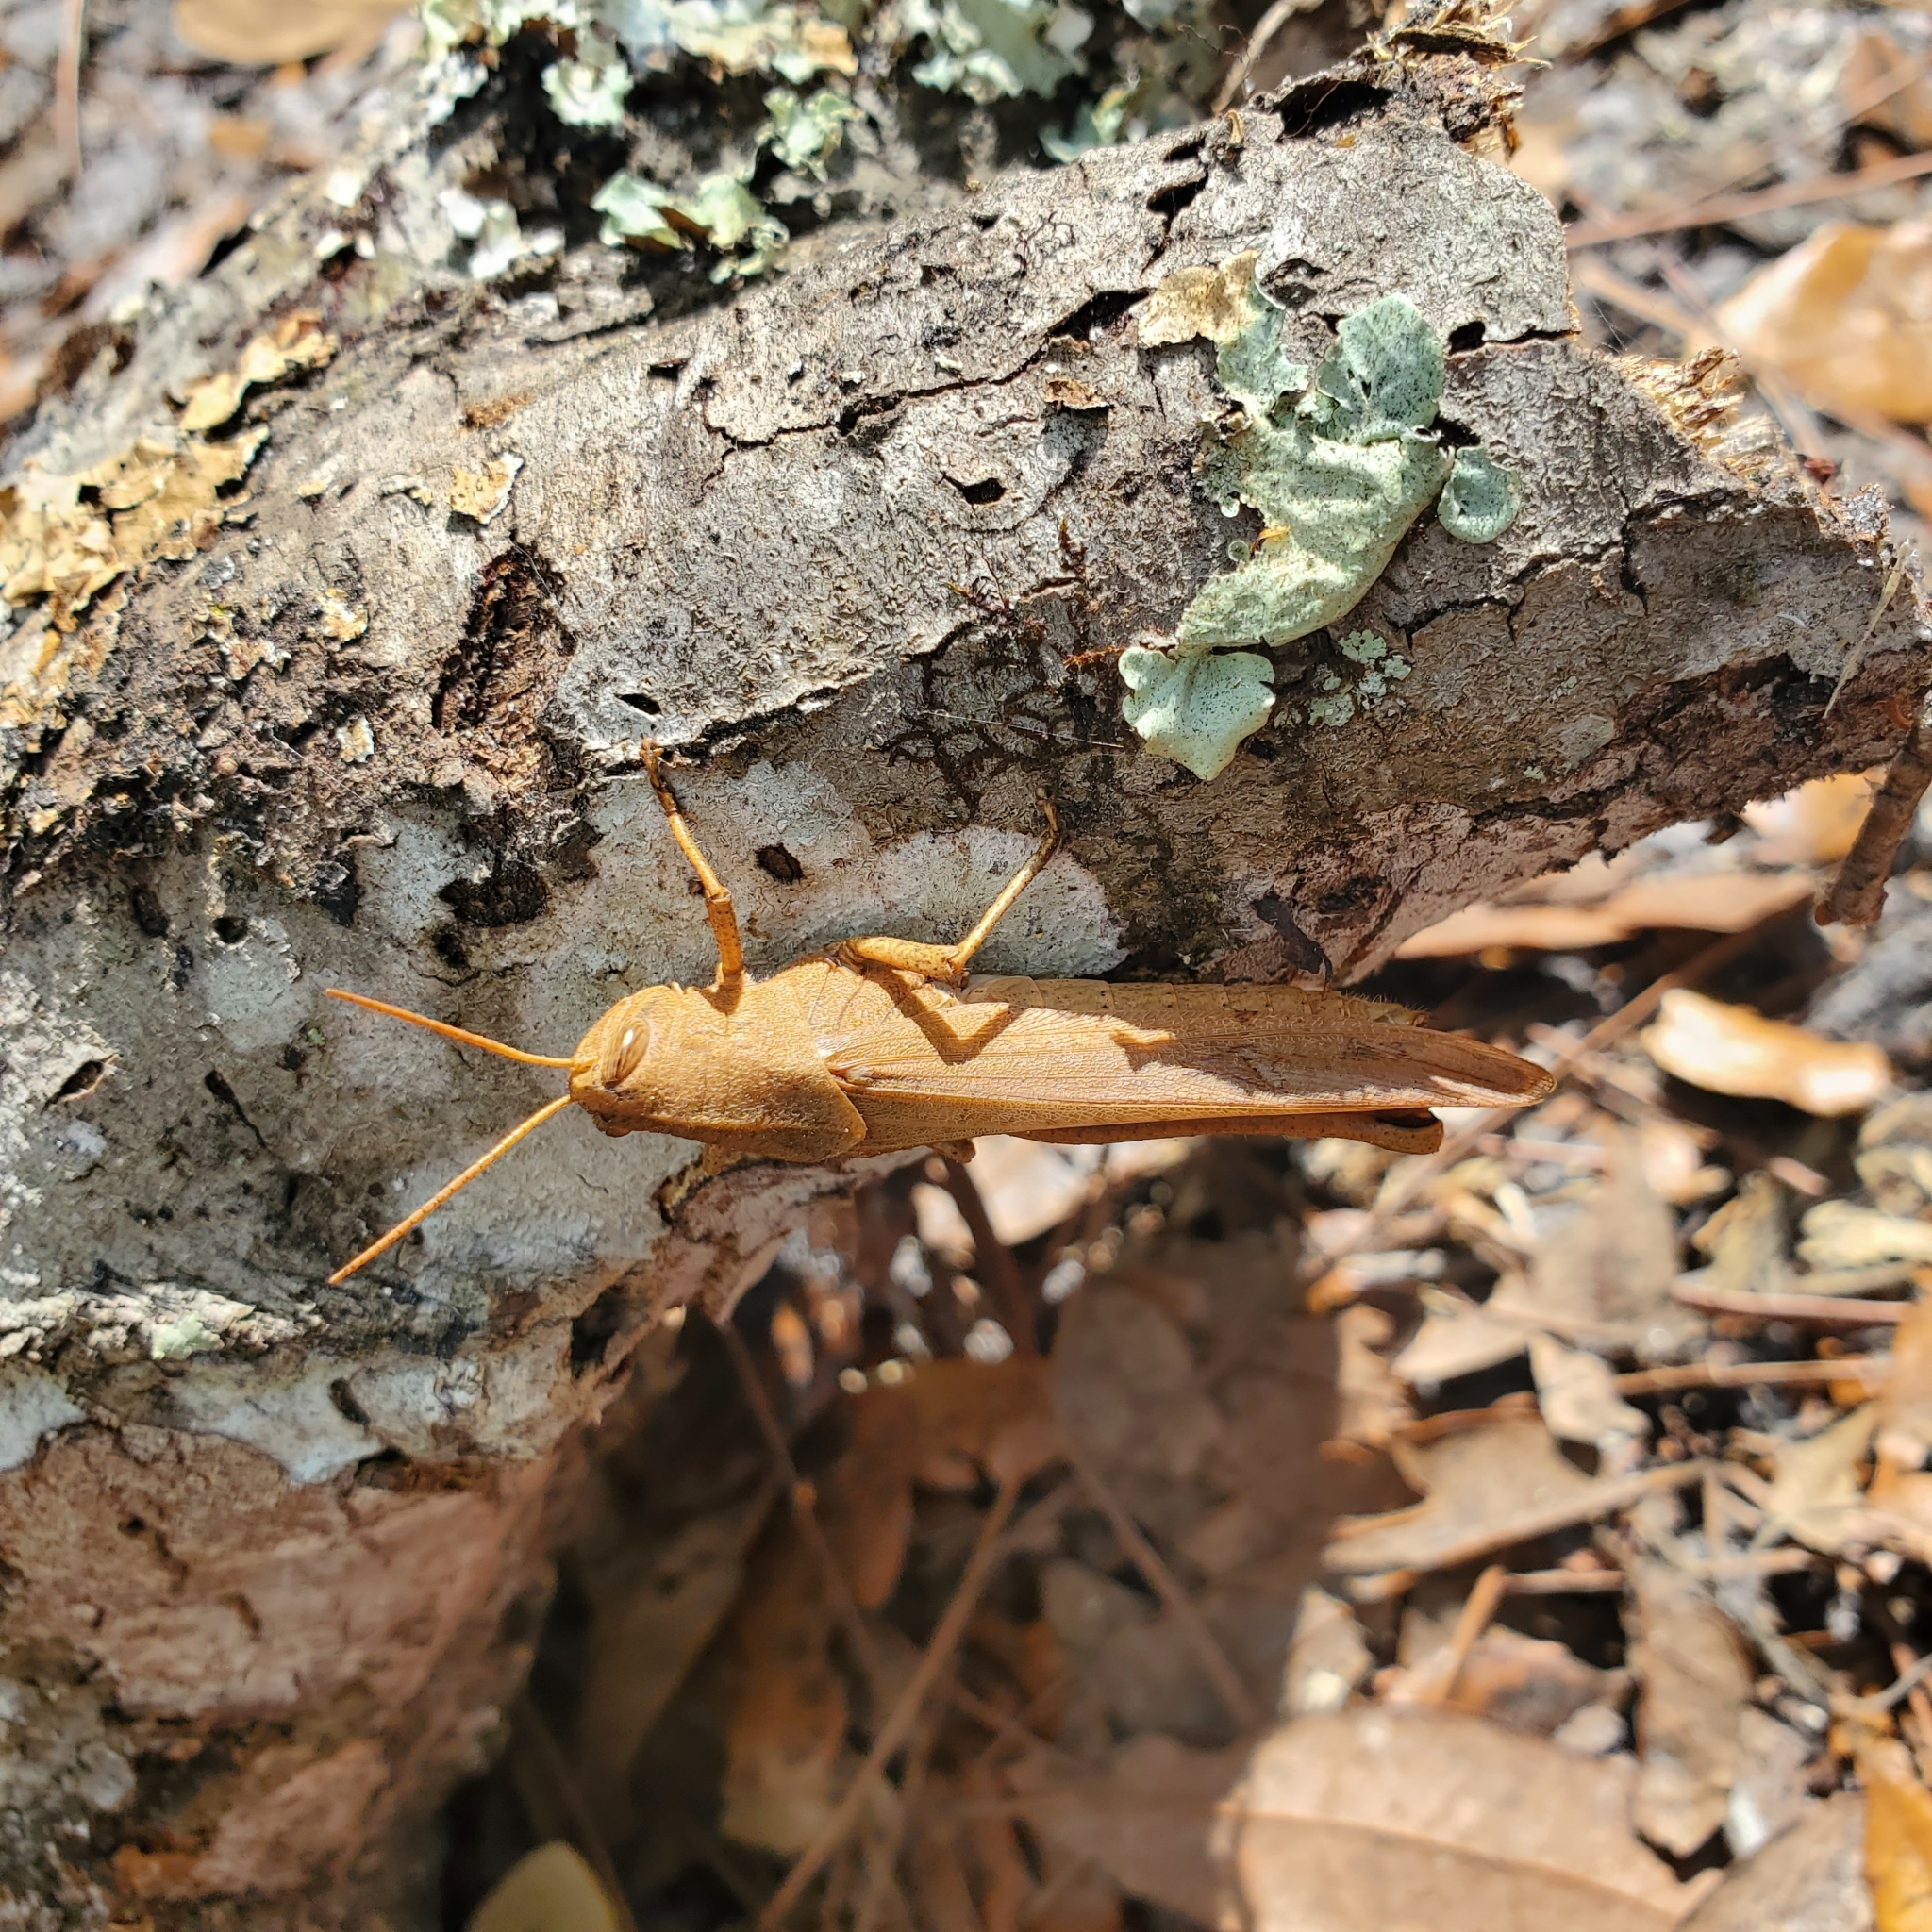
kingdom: Animalia
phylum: Arthropoda
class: Insecta
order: Orthoptera
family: Acrididae
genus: Schistocerca
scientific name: Schistocerca damnifica
